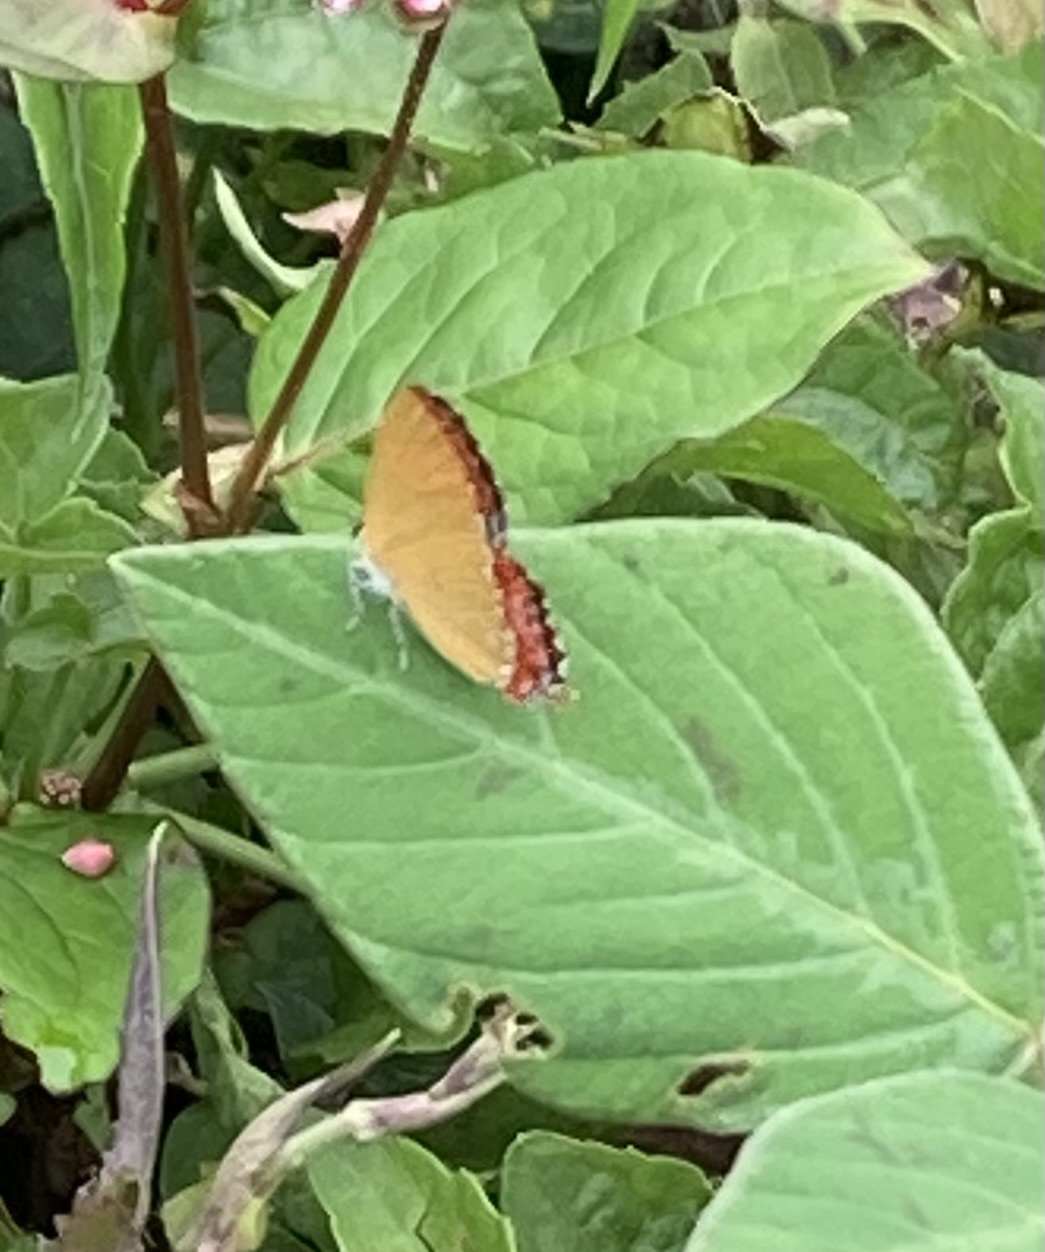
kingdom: Animalia
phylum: Arthropoda
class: Insecta
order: Lepidoptera
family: Lycaenidae
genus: Heliophorus
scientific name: Heliophorus epicles
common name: Purple sapphire
